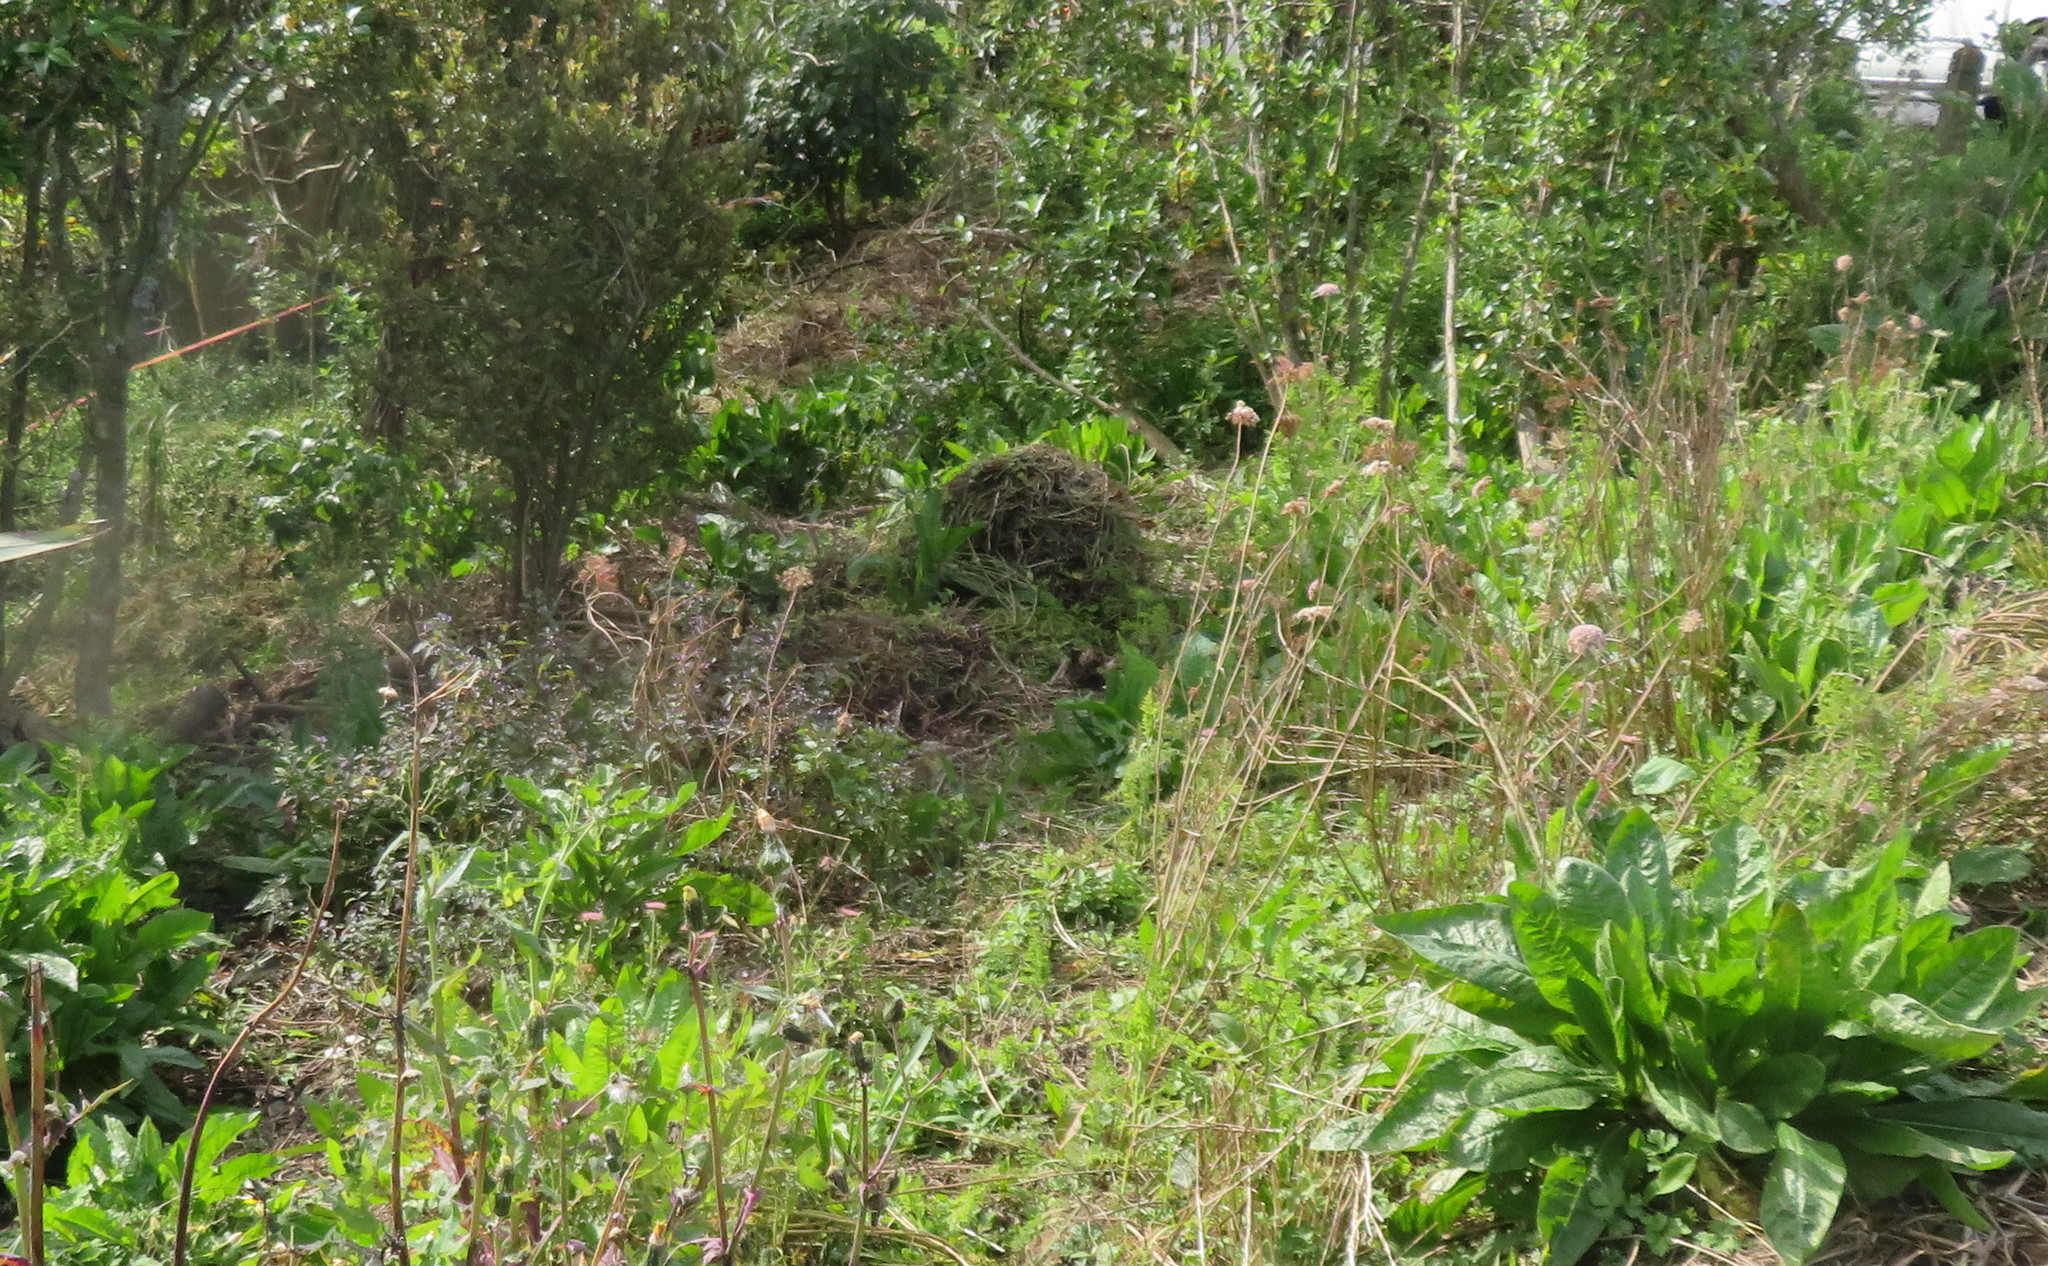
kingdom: Plantae
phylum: Tracheophyta
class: Liliopsida
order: Commelinales
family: Commelinaceae
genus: Tradescantia
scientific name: Tradescantia fluminensis
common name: Wandering-jew
